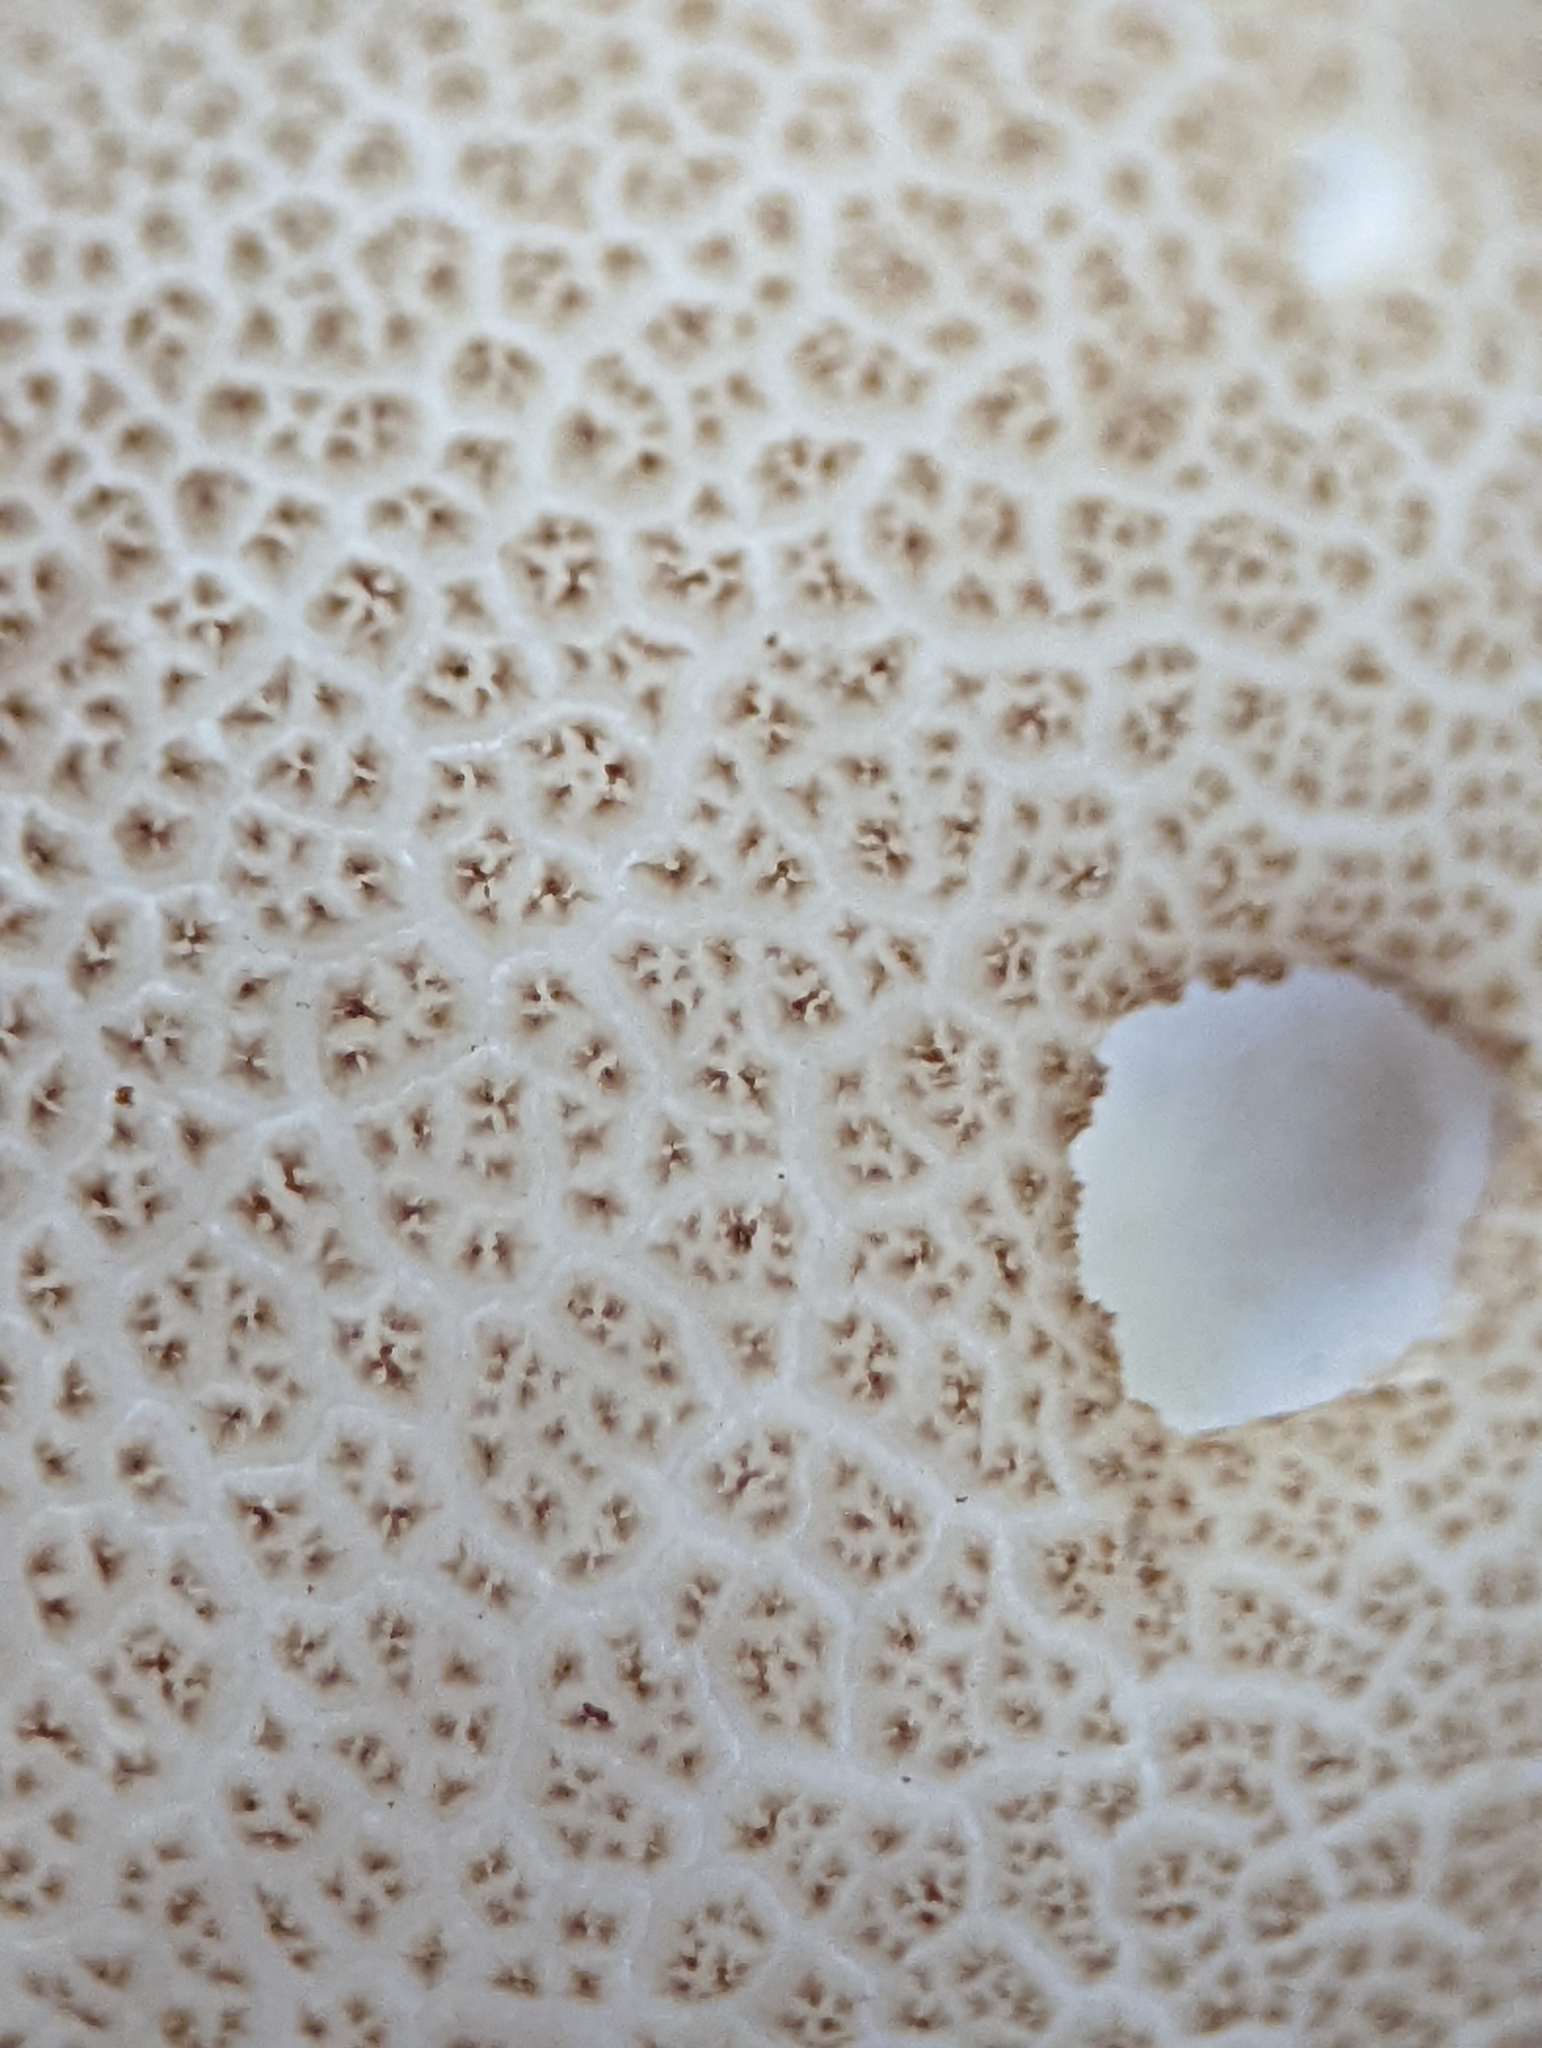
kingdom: Fungi
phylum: Basidiomycota
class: Agaricomycetes
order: Agaricales
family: Lycoperdaceae
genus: Apioperdon
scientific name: Apioperdon pyriforme
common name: Pear-shaped puffball
